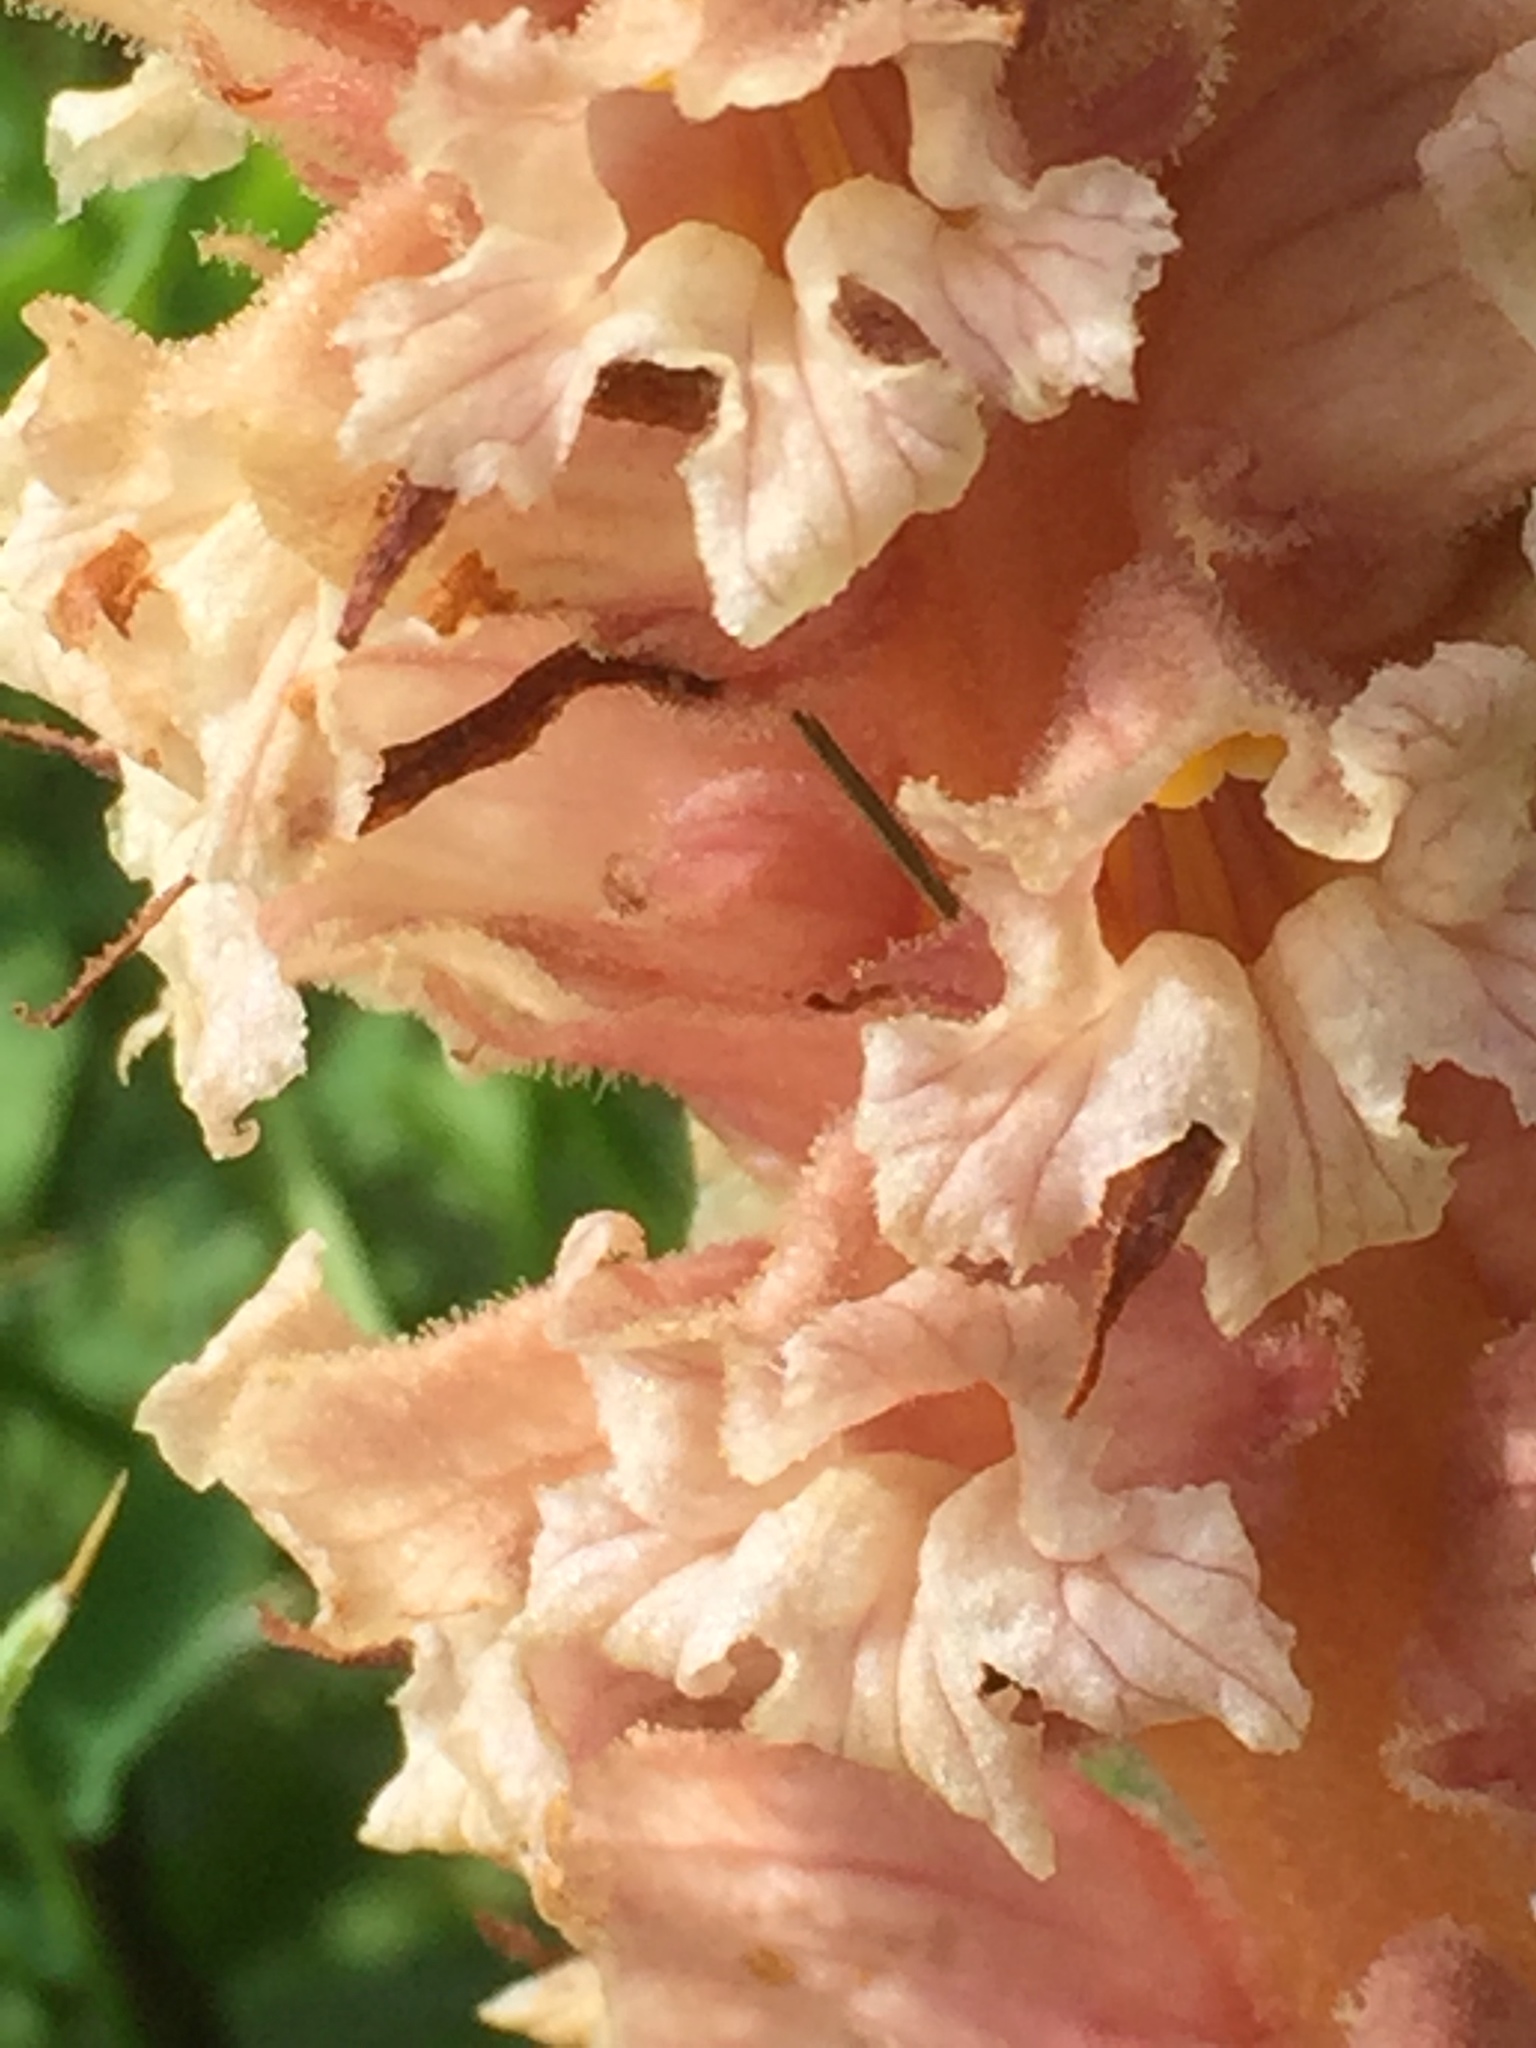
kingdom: Plantae
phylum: Tracheophyta
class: Magnoliopsida
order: Lamiales
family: Orobanchaceae
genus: Orobanche
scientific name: Orobanche crenata
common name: Bean broomrape
